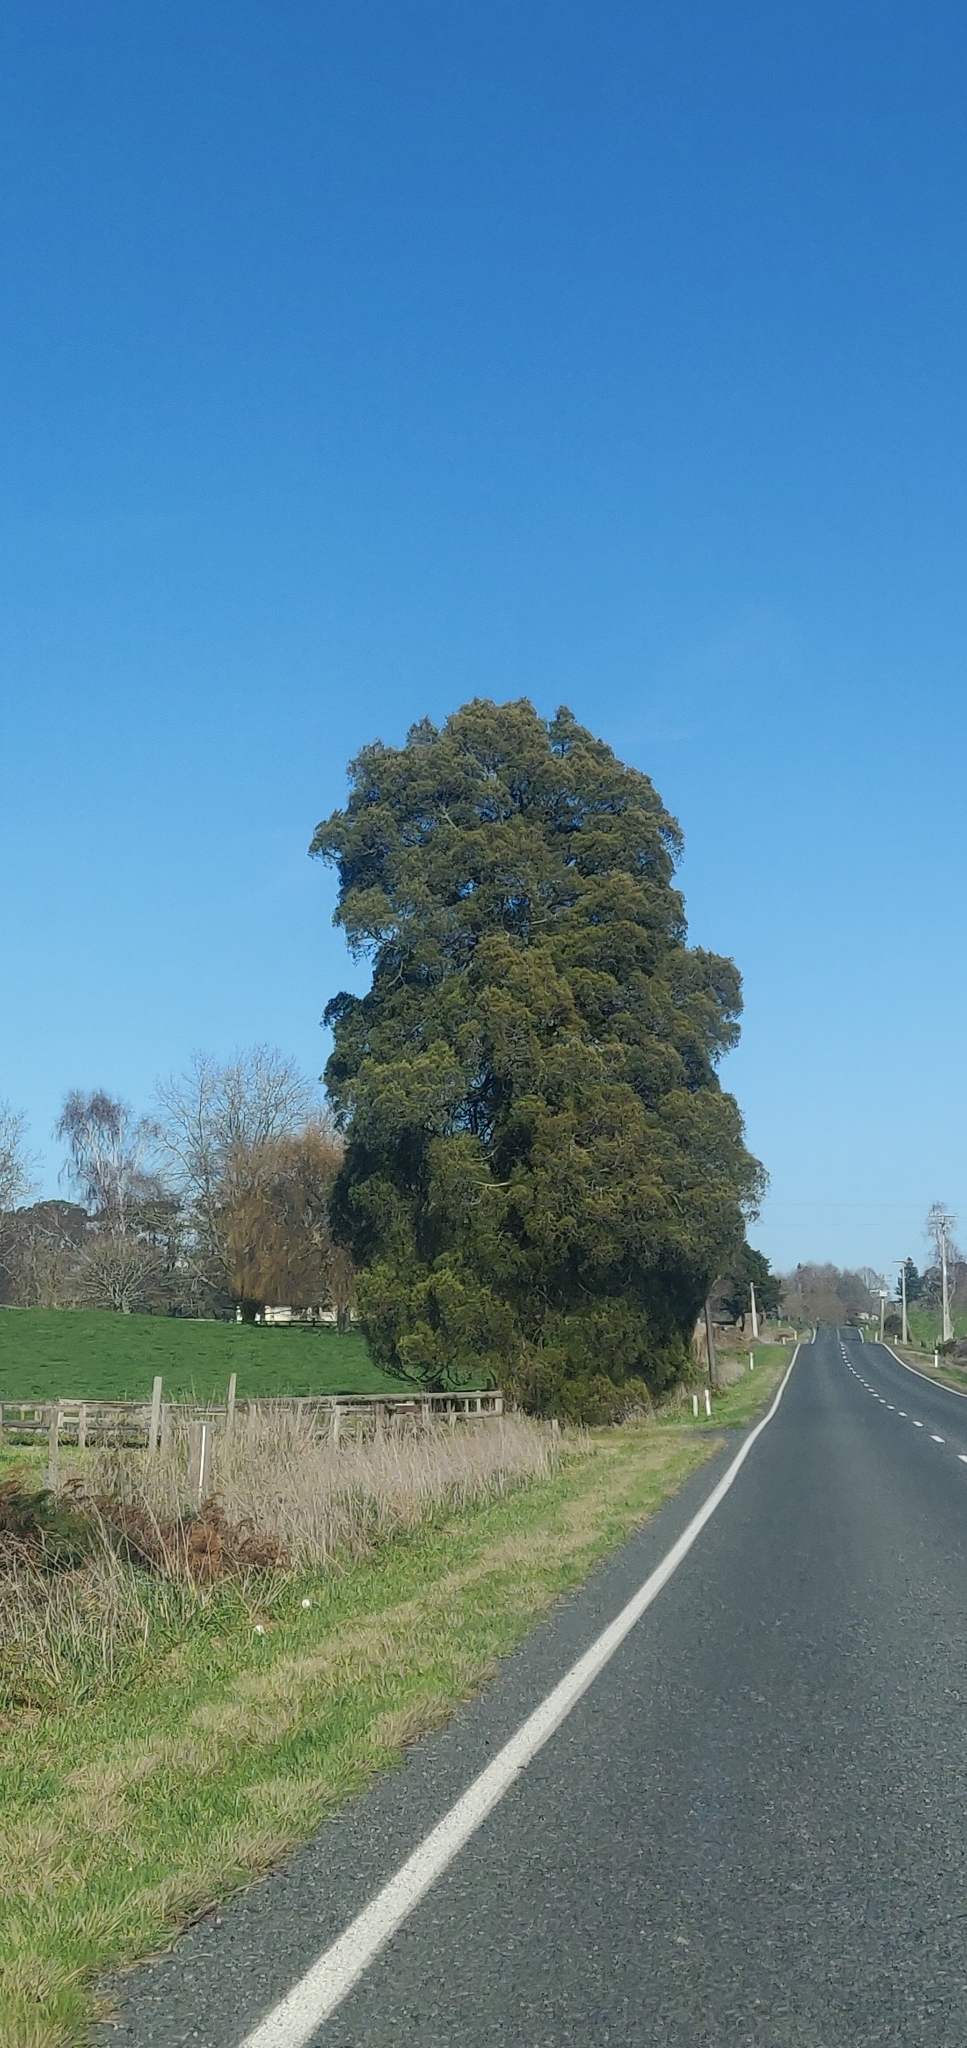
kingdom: Plantae
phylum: Tracheophyta
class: Pinopsida
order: Pinales
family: Podocarpaceae
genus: Dacrycarpus
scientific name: Dacrycarpus dacrydioides
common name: White pine
